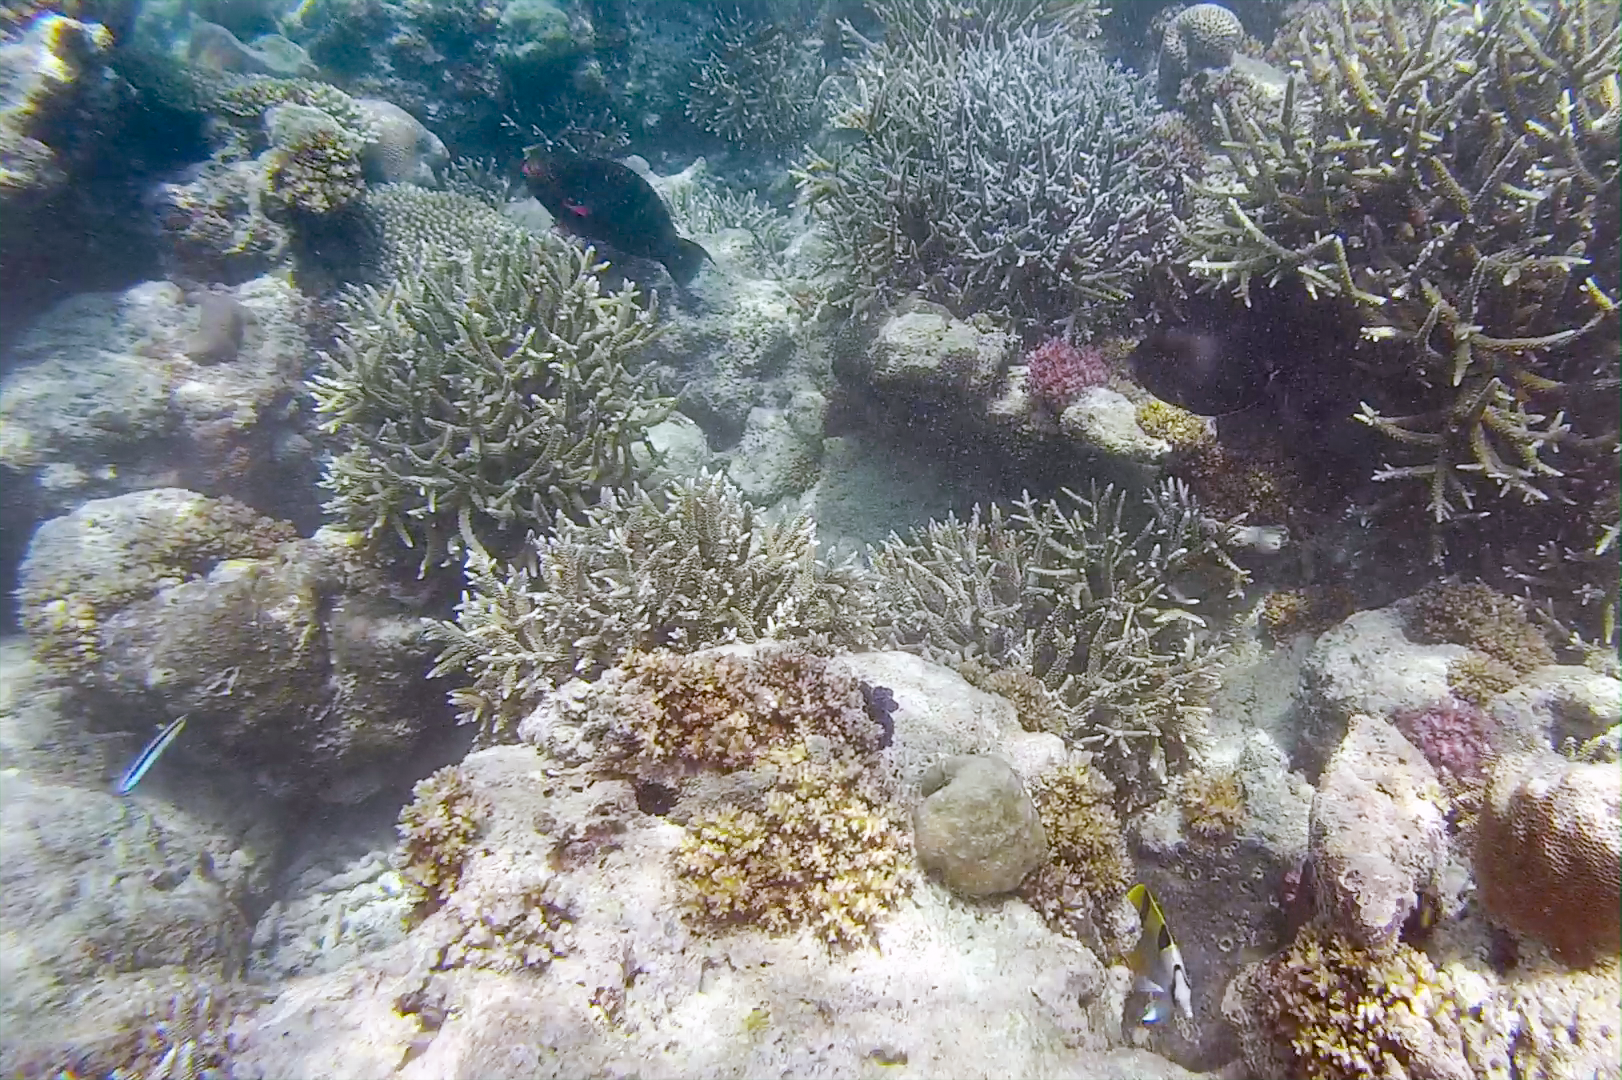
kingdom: Animalia
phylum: Chordata
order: Perciformes
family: Scaridae
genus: Scarus
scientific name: Scarus niger
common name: Dusky parrotfish
